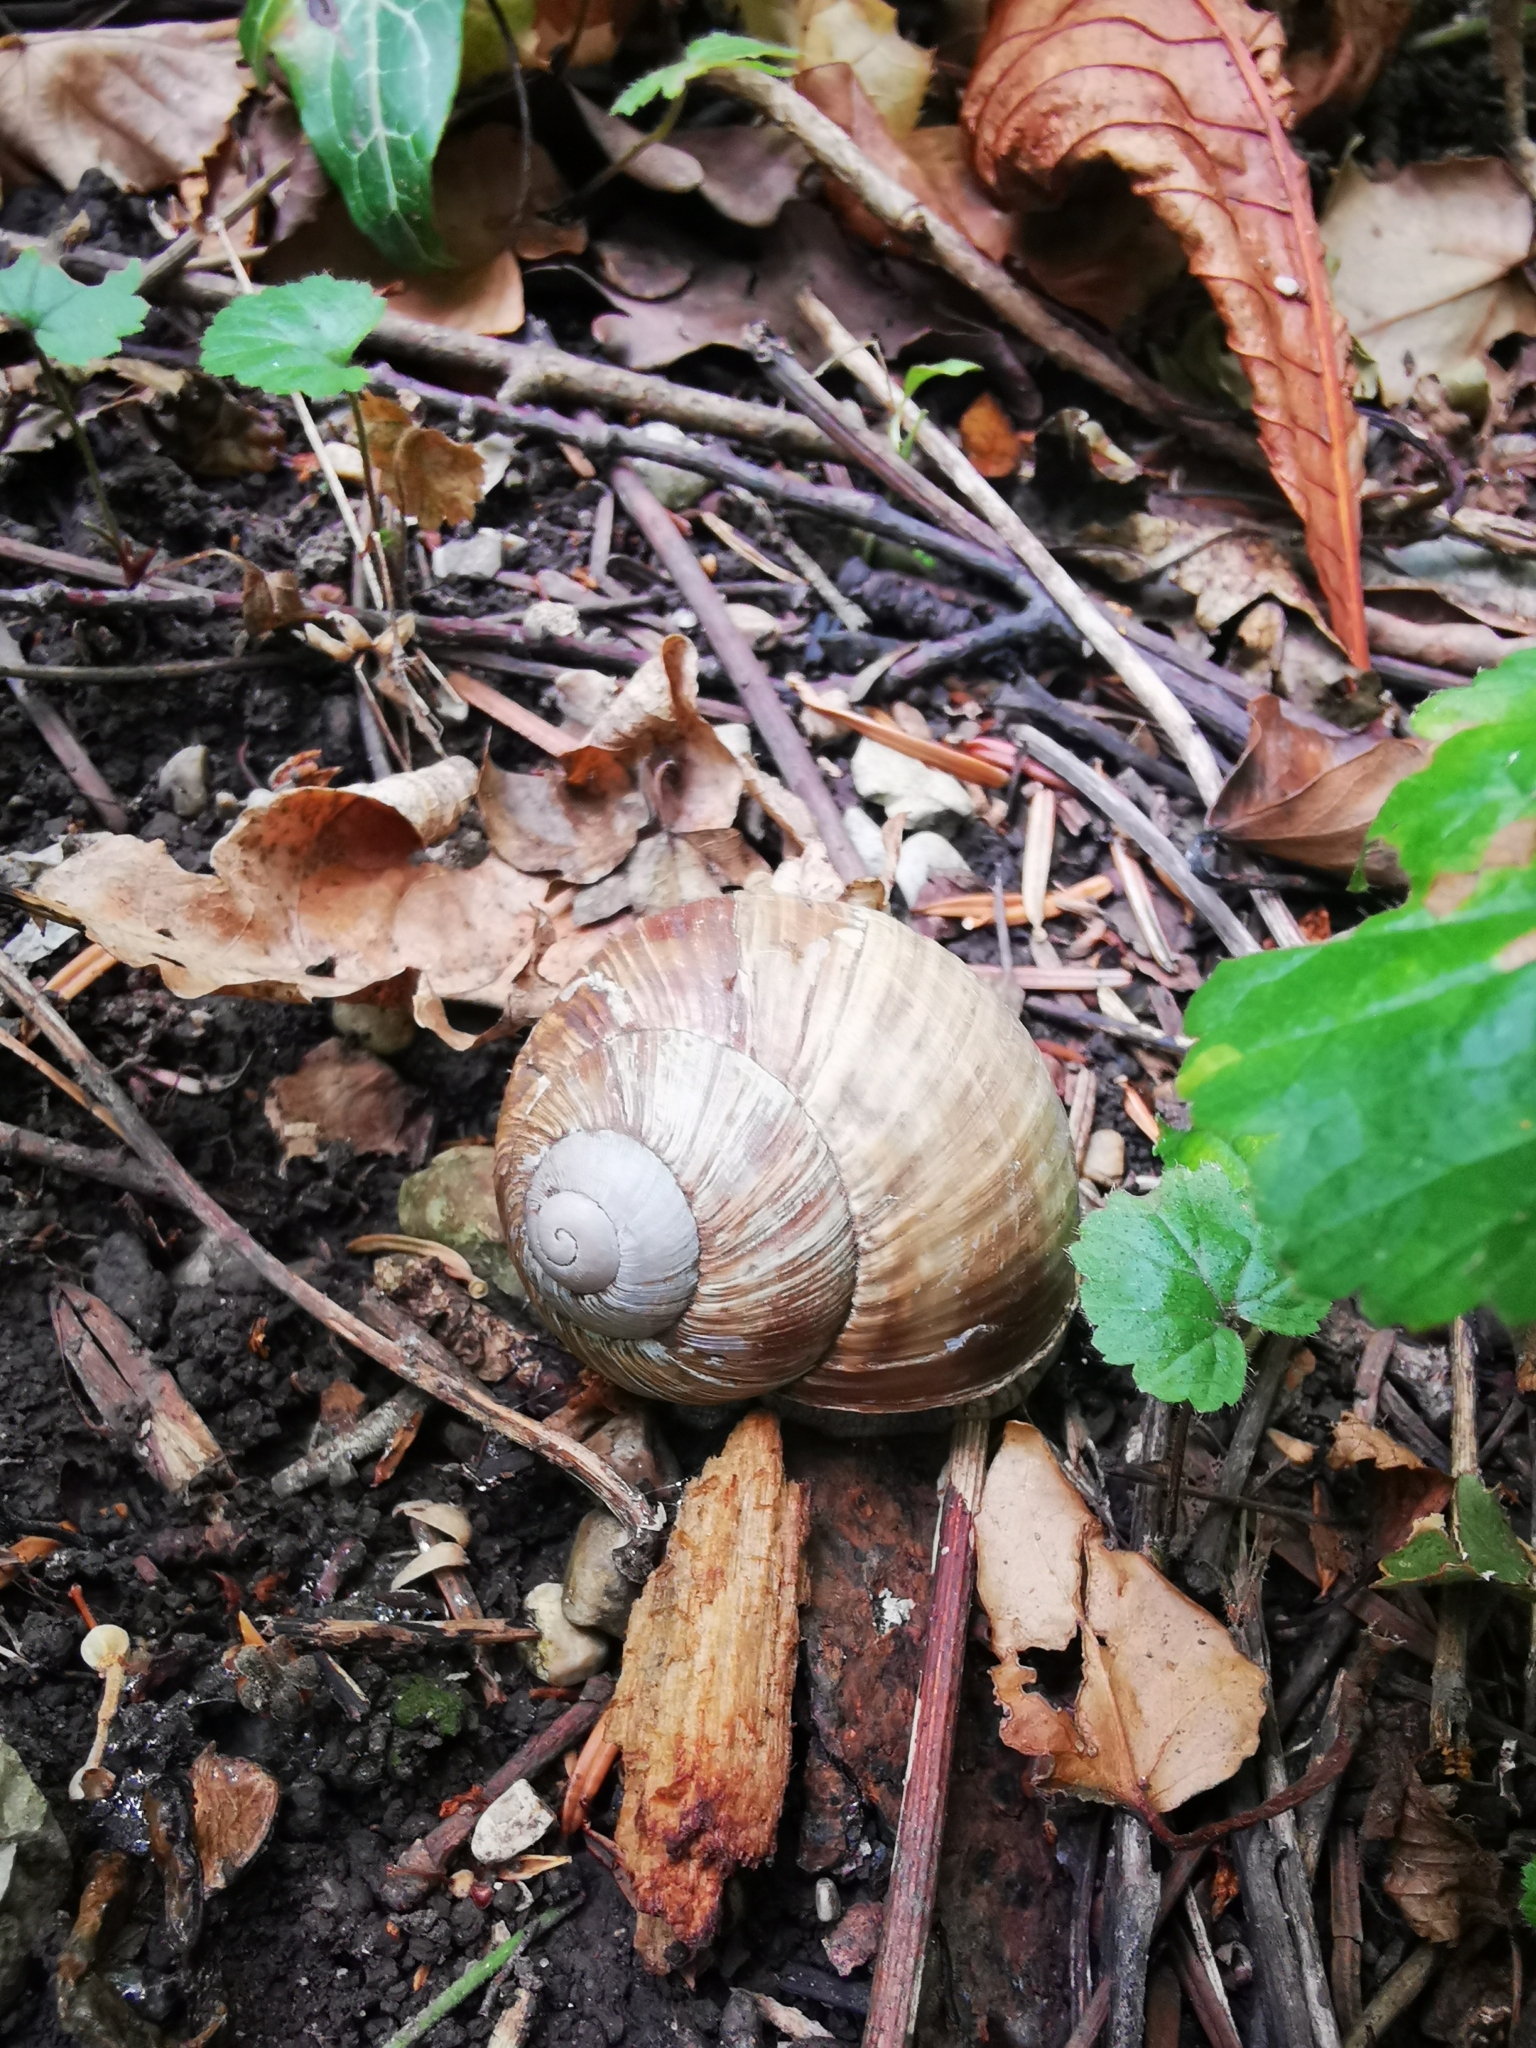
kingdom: Animalia
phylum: Mollusca
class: Gastropoda
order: Stylommatophora
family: Helicidae
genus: Helix
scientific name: Helix pomatia
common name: Roman snail
